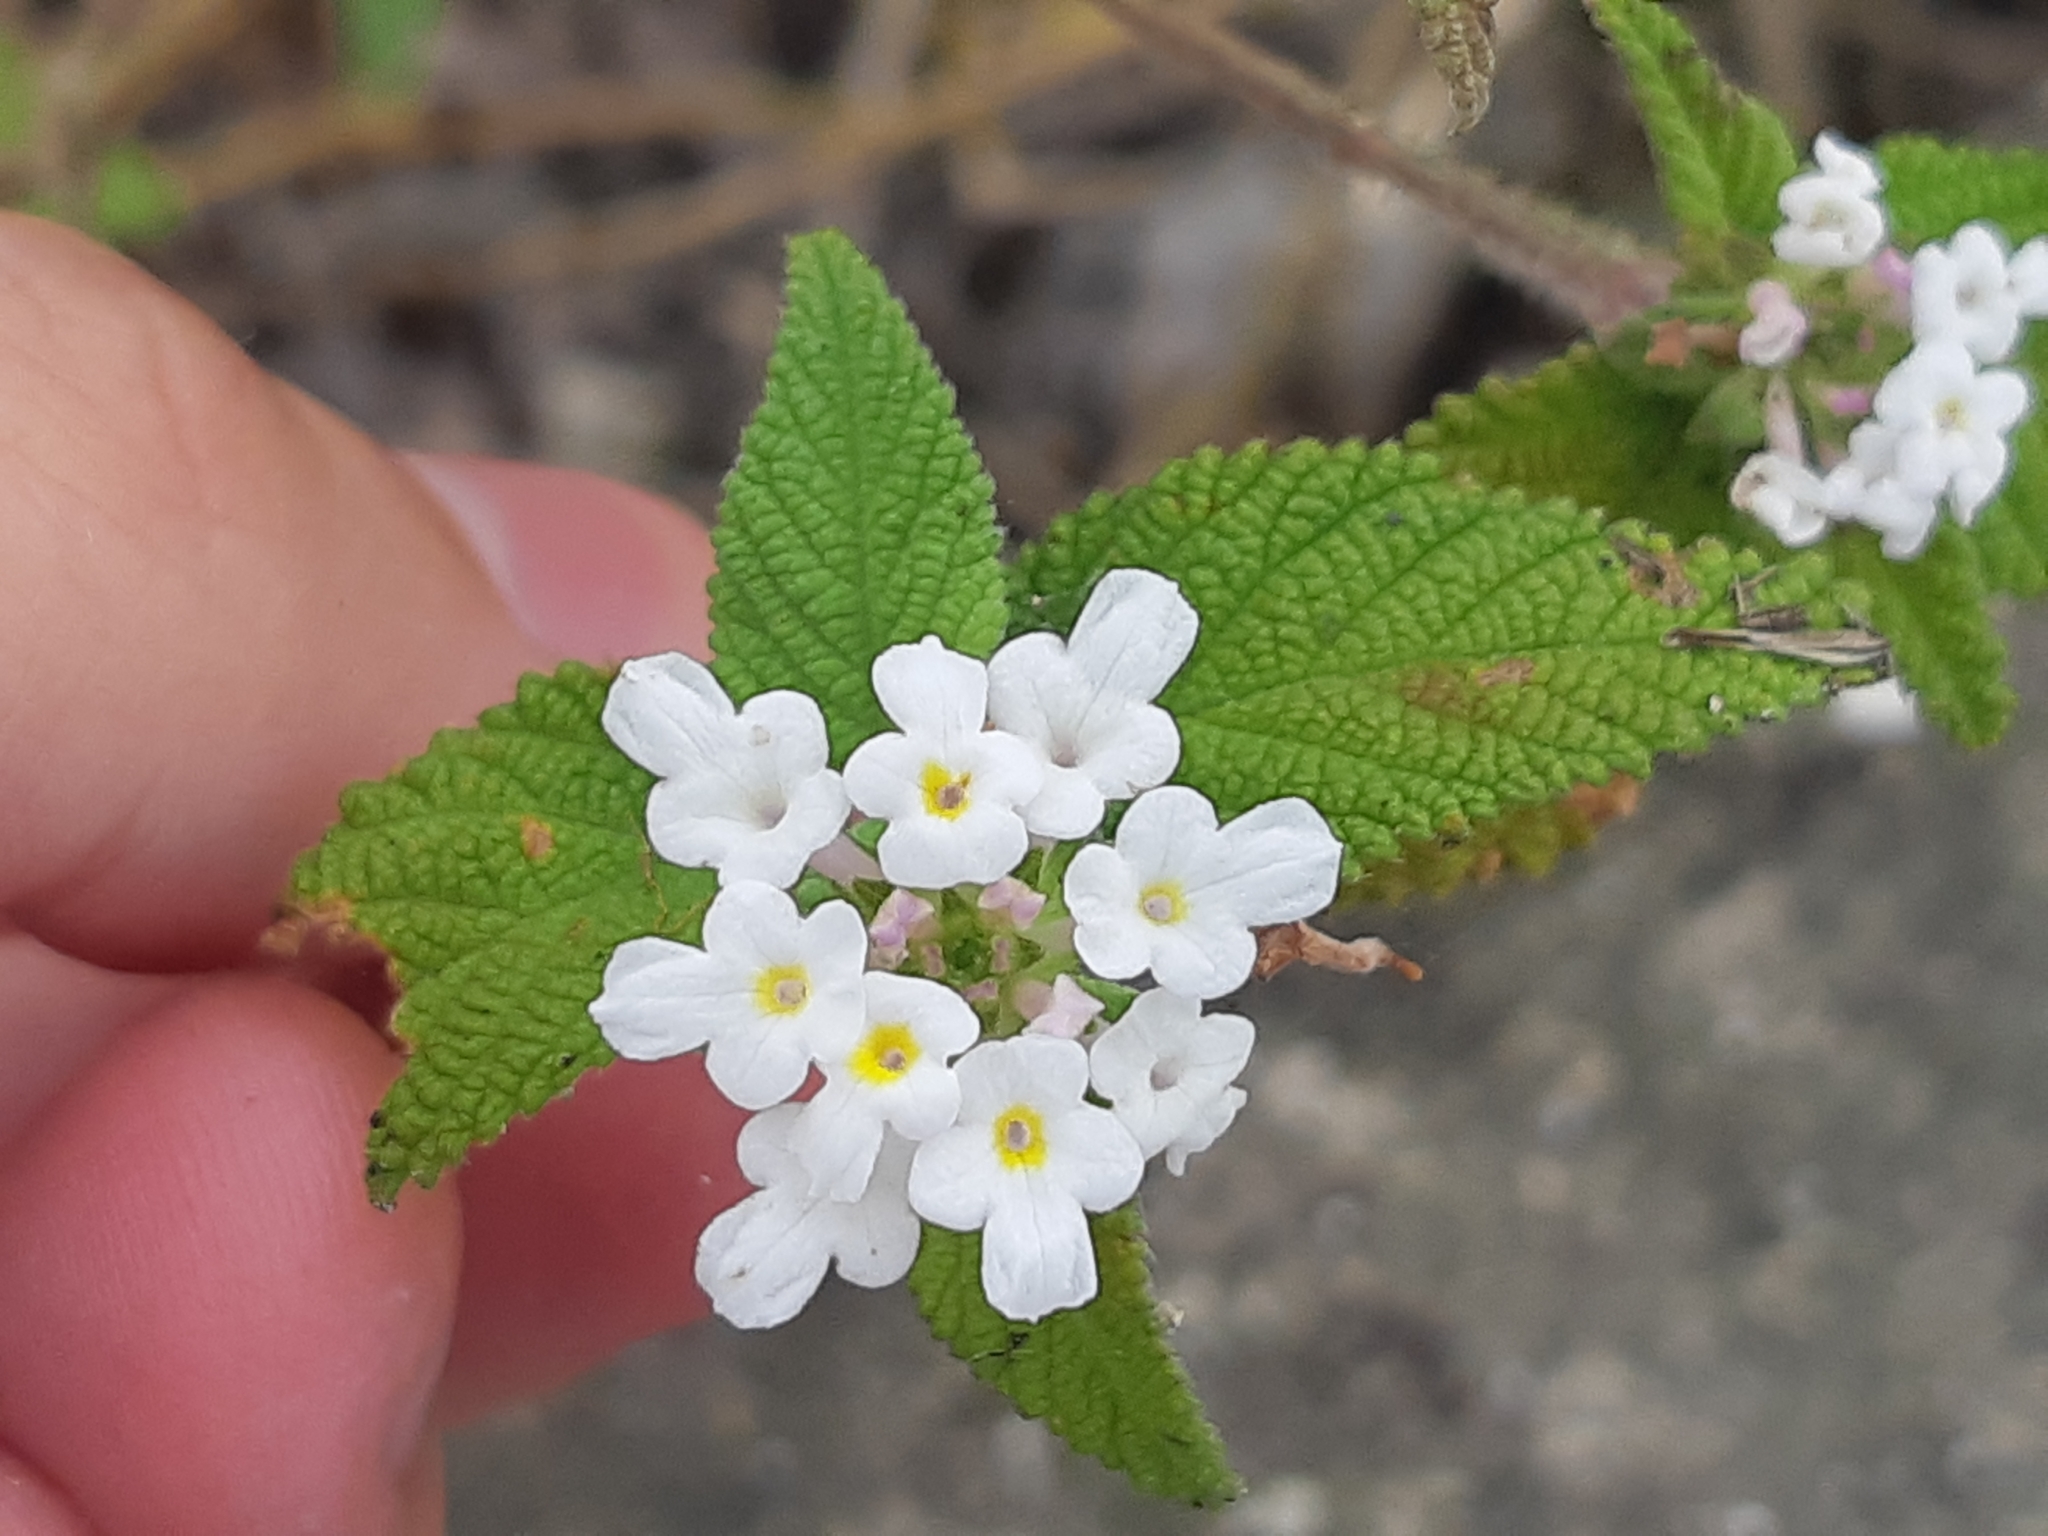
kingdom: Plantae
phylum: Tracheophyta
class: Magnoliopsida
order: Lamiales
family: Verbenaceae
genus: Lantana
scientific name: Lantana velutina
